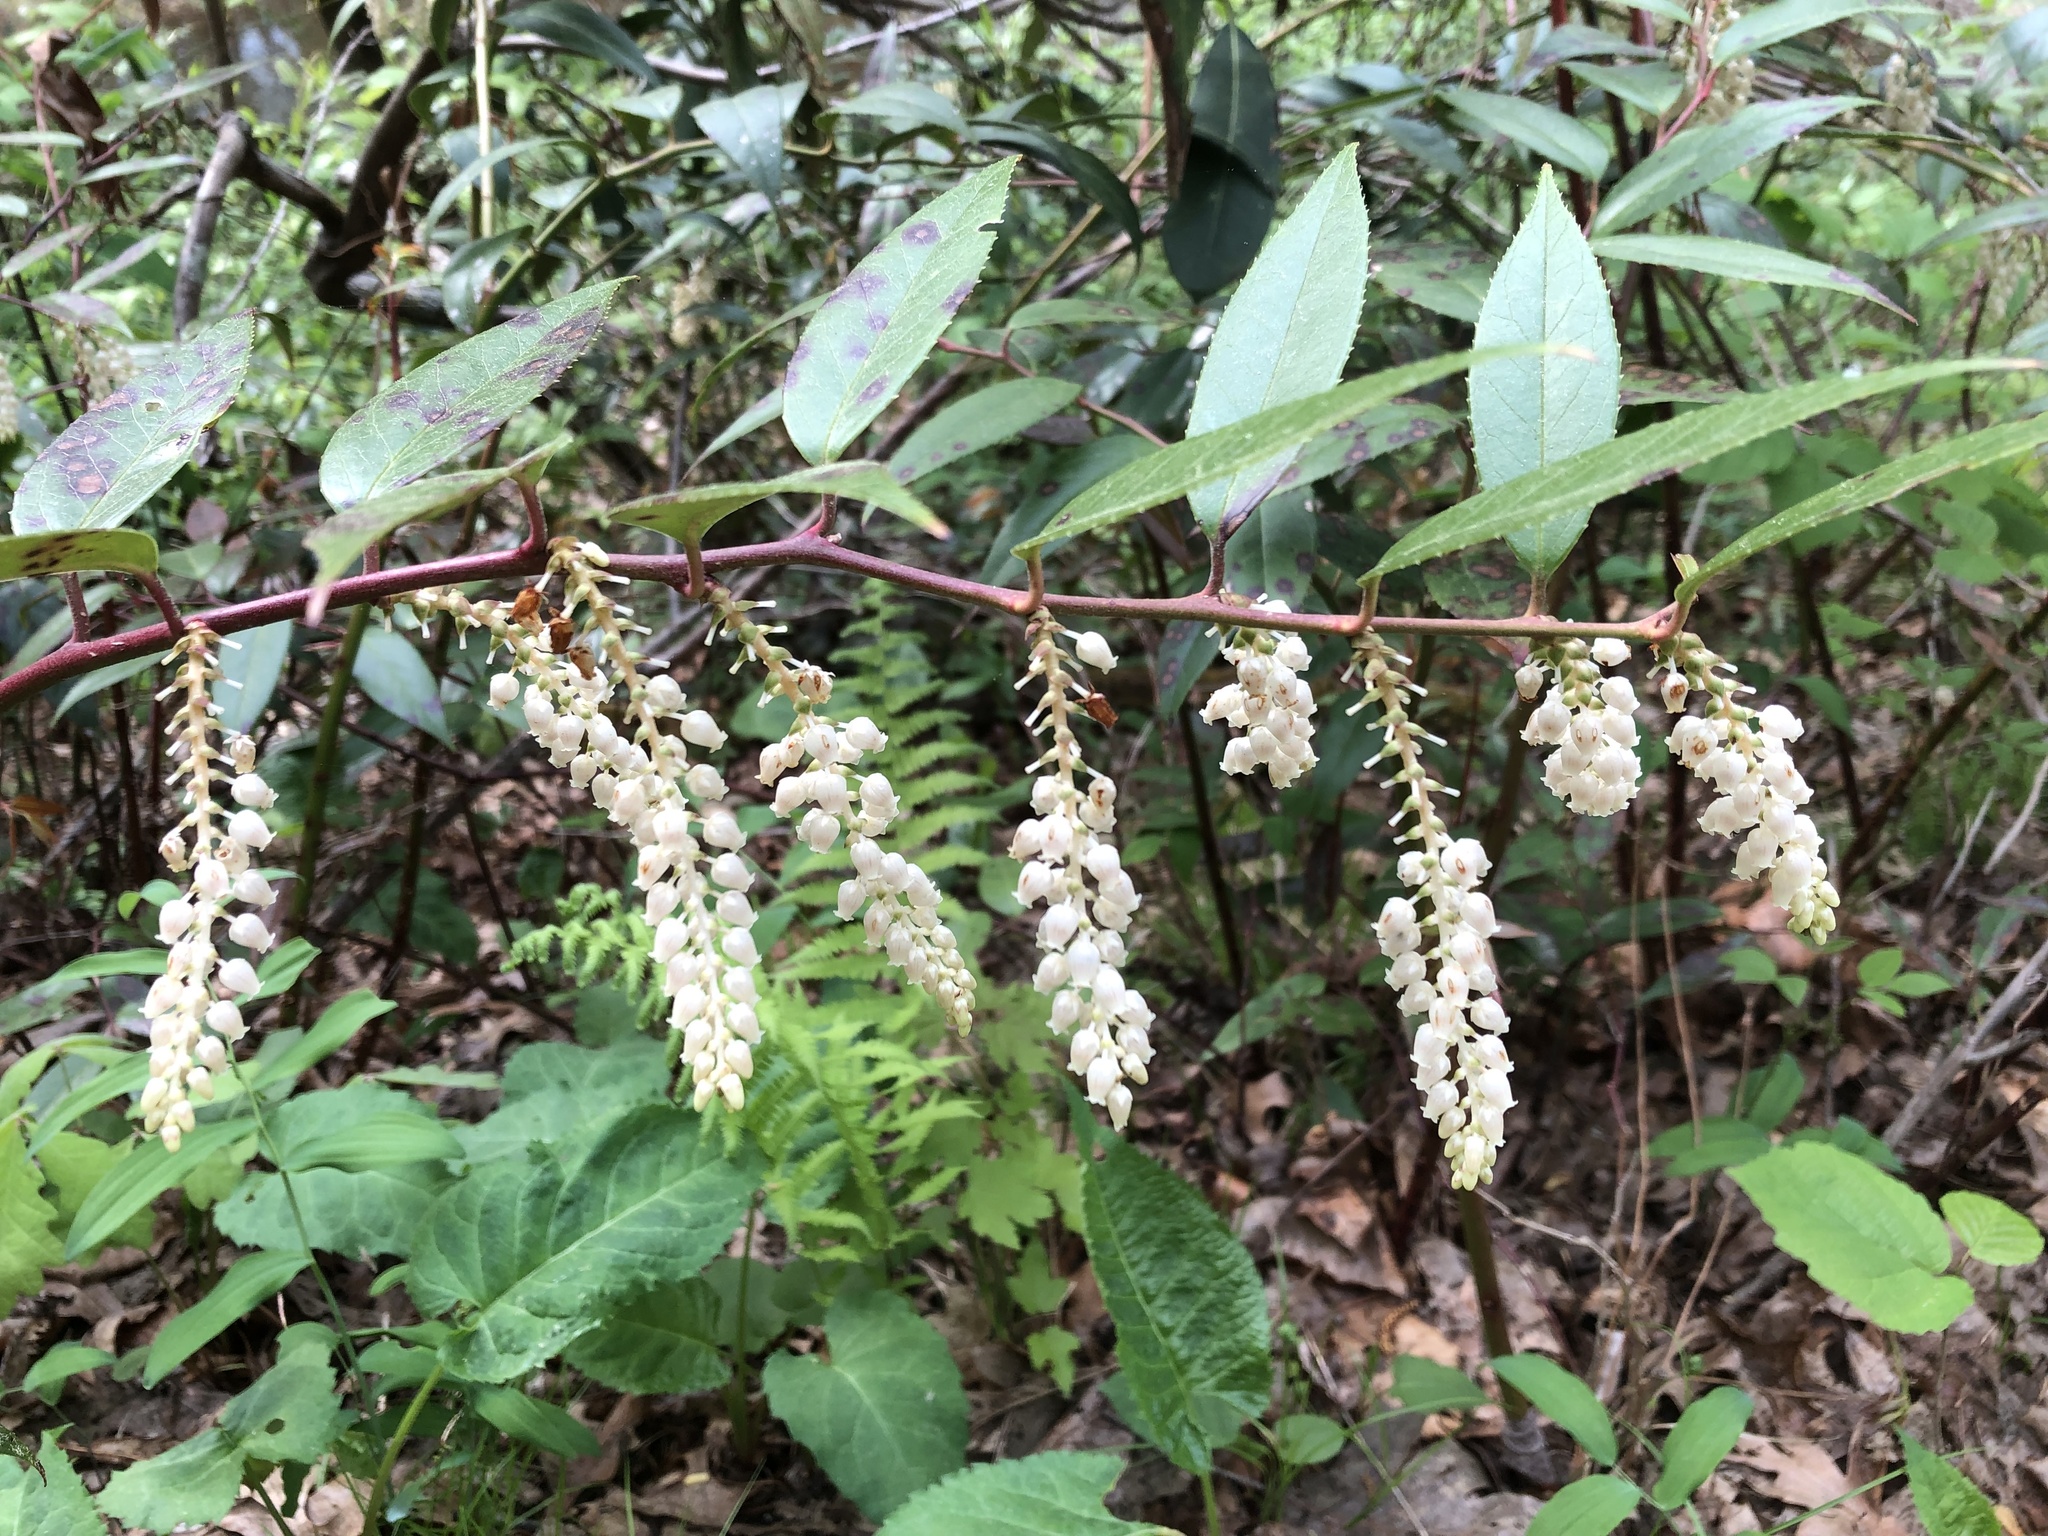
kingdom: Plantae
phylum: Tracheophyta
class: Magnoliopsida
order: Ericales
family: Ericaceae
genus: Leucothoe
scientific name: Leucothoe fontanesiana
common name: Fetterbush
